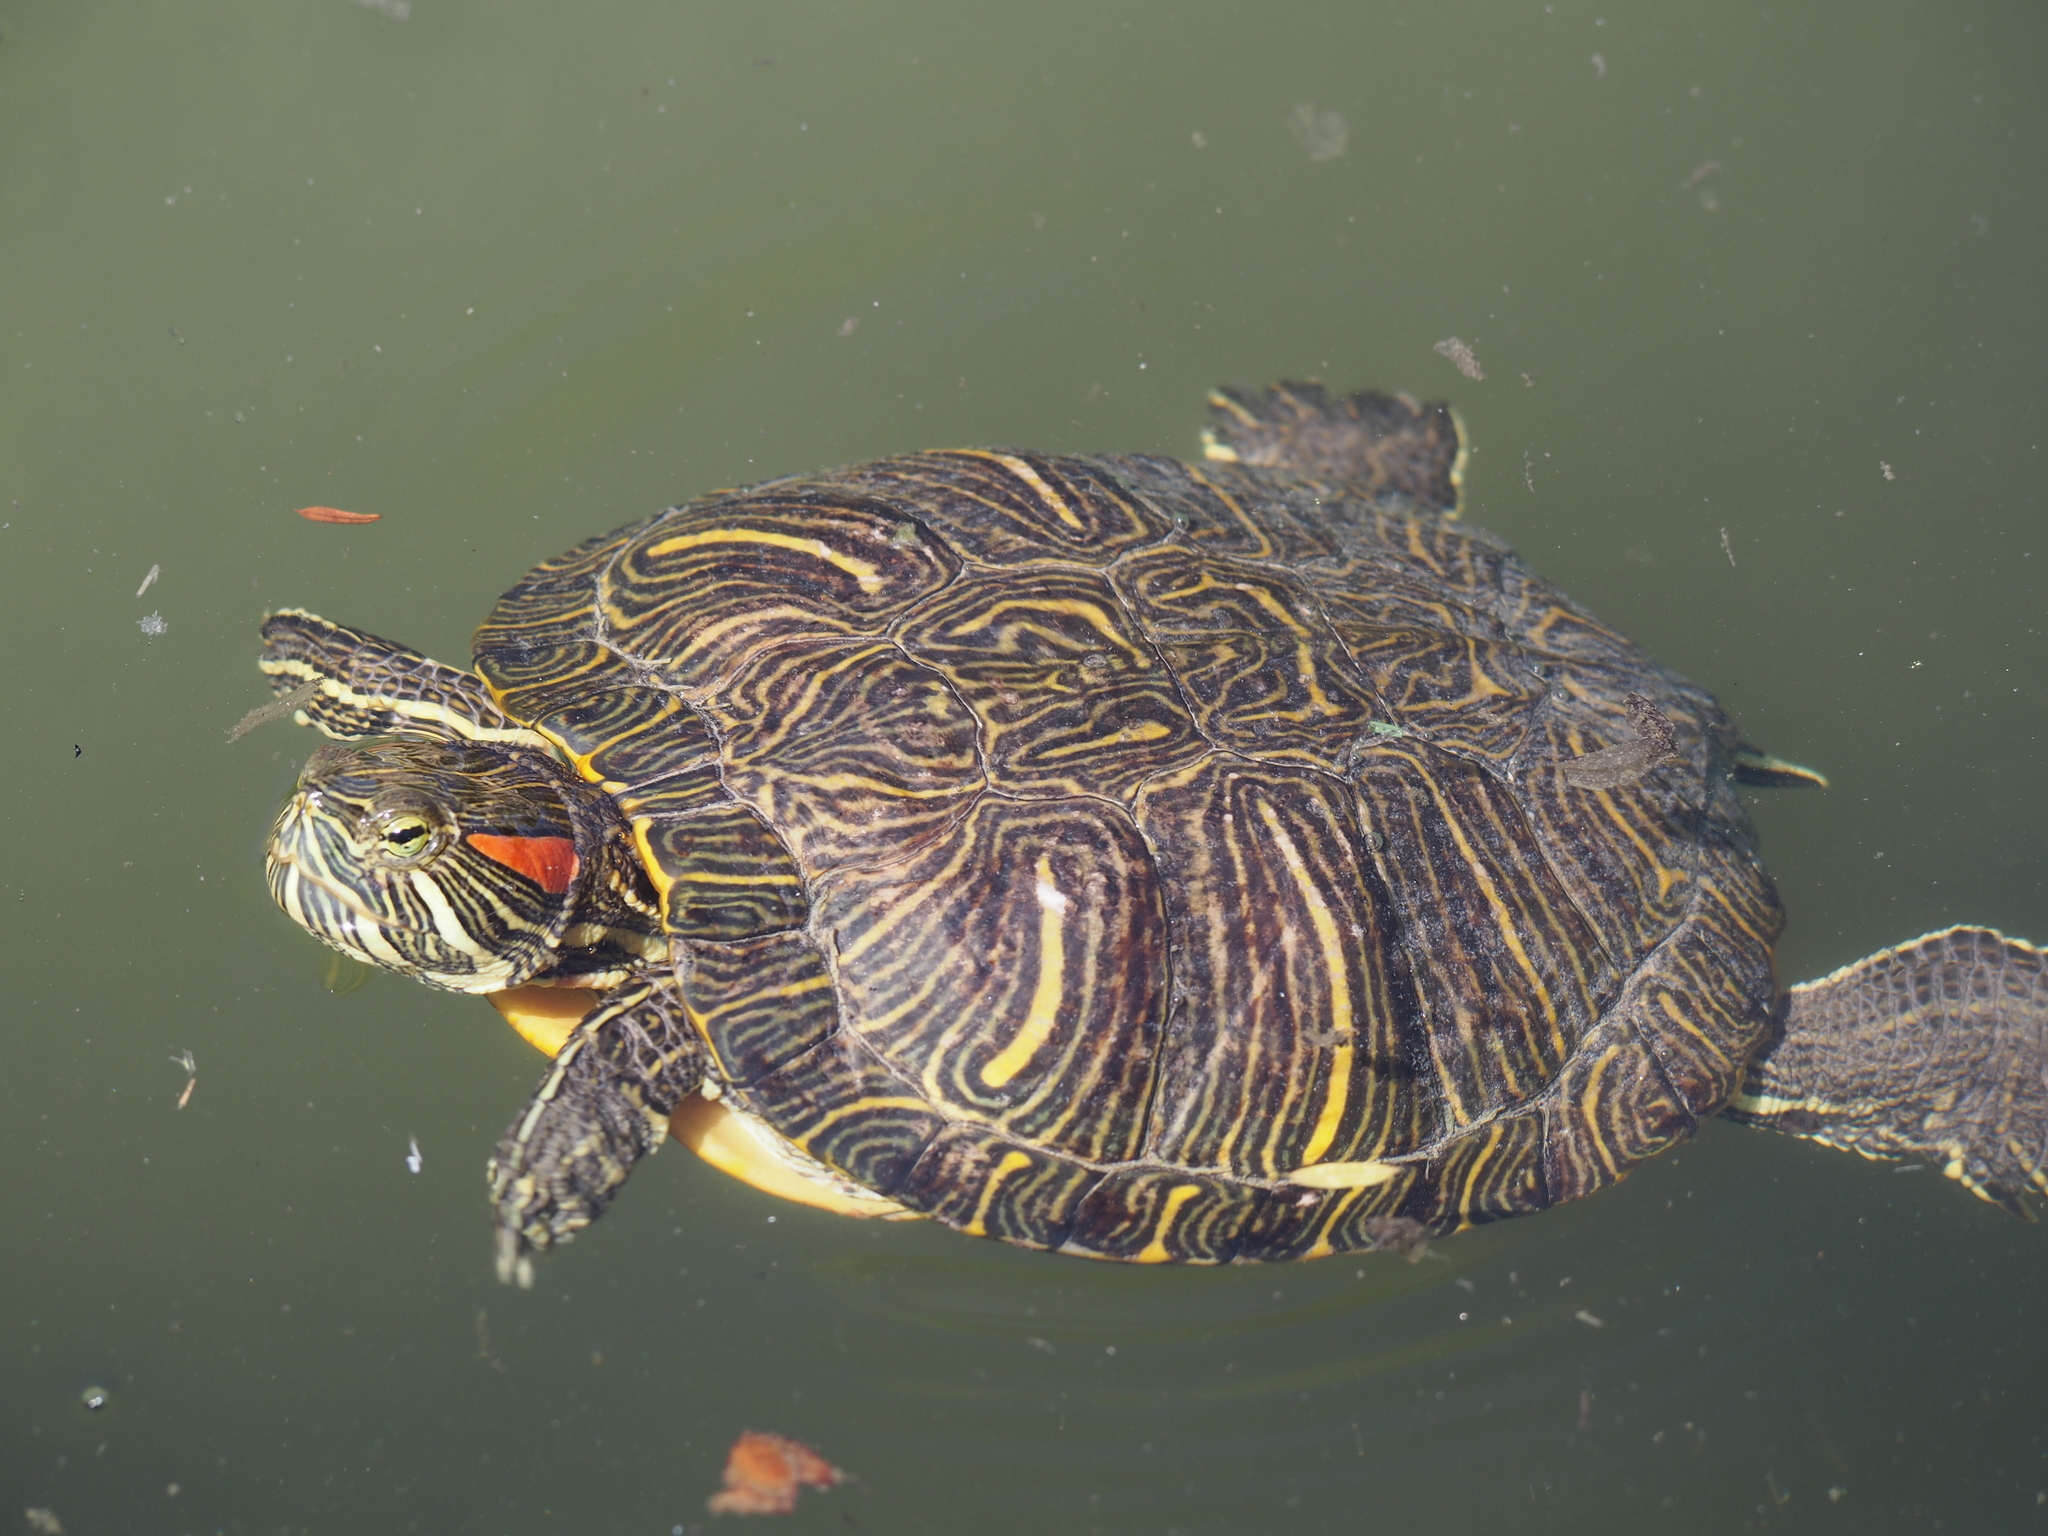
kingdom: Animalia
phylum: Chordata
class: Testudines
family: Emydidae
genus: Trachemys
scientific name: Trachemys scripta
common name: Slider
